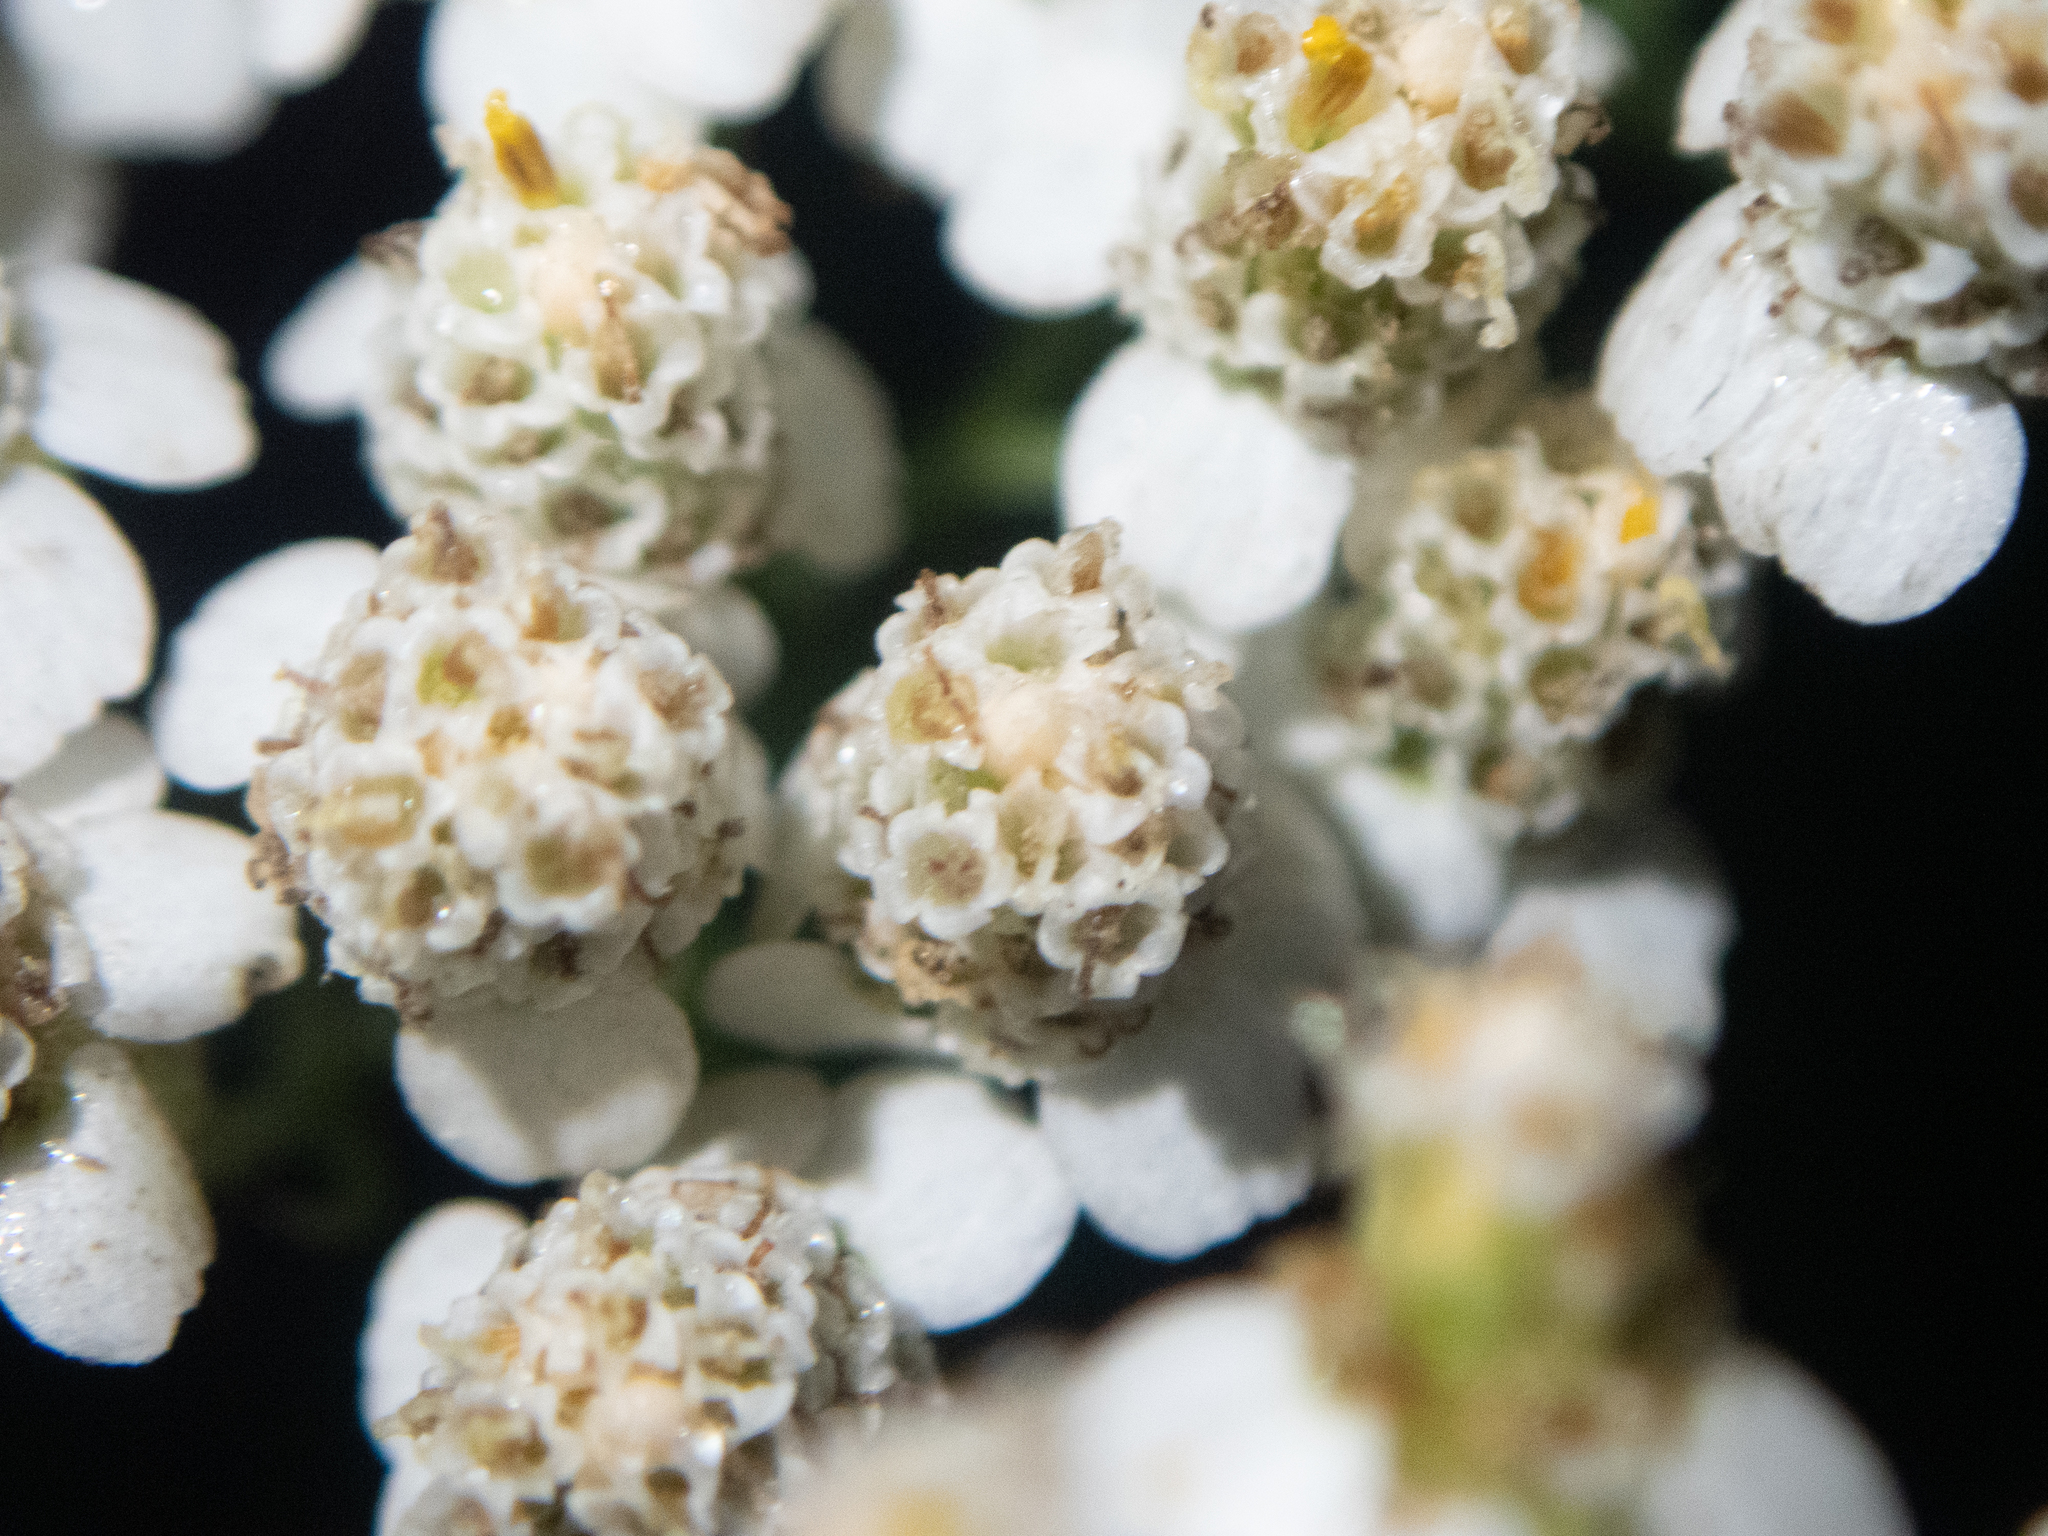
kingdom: Plantae
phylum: Tracheophyta
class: Magnoliopsida
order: Asterales
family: Asteraceae
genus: Achillea
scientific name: Achillea millefolium
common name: Yarrow
